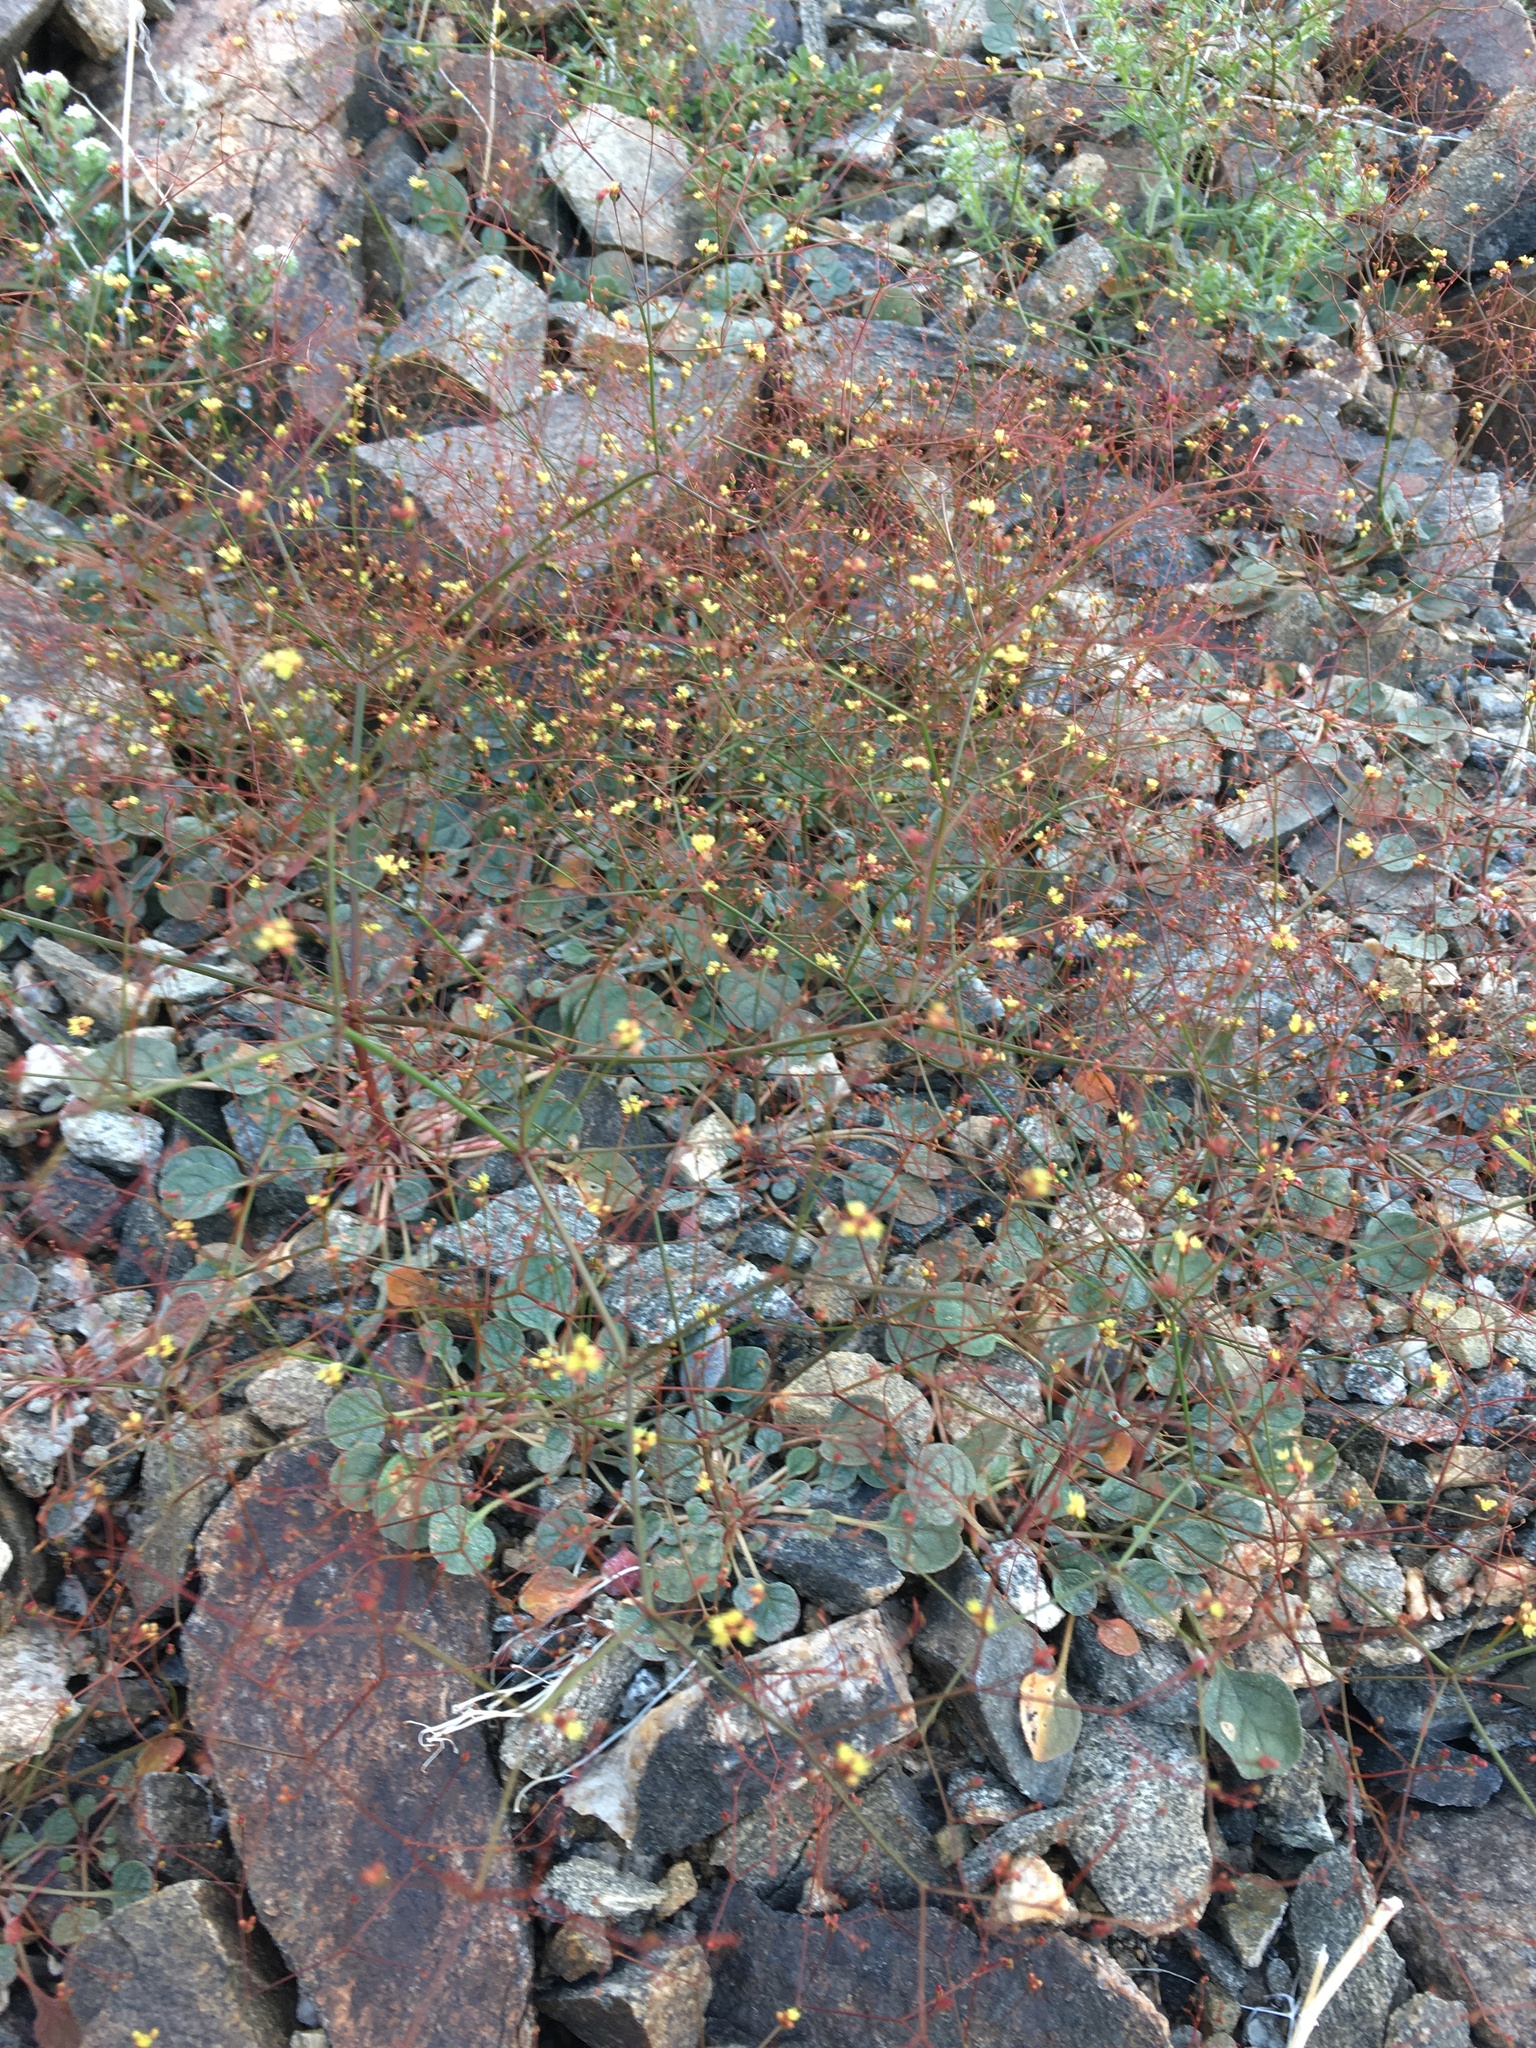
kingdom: Plantae
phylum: Tracheophyta
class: Magnoliopsida
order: Caryophyllales
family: Polygonaceae
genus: Eriogonum
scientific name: Eriogonum thomasii
